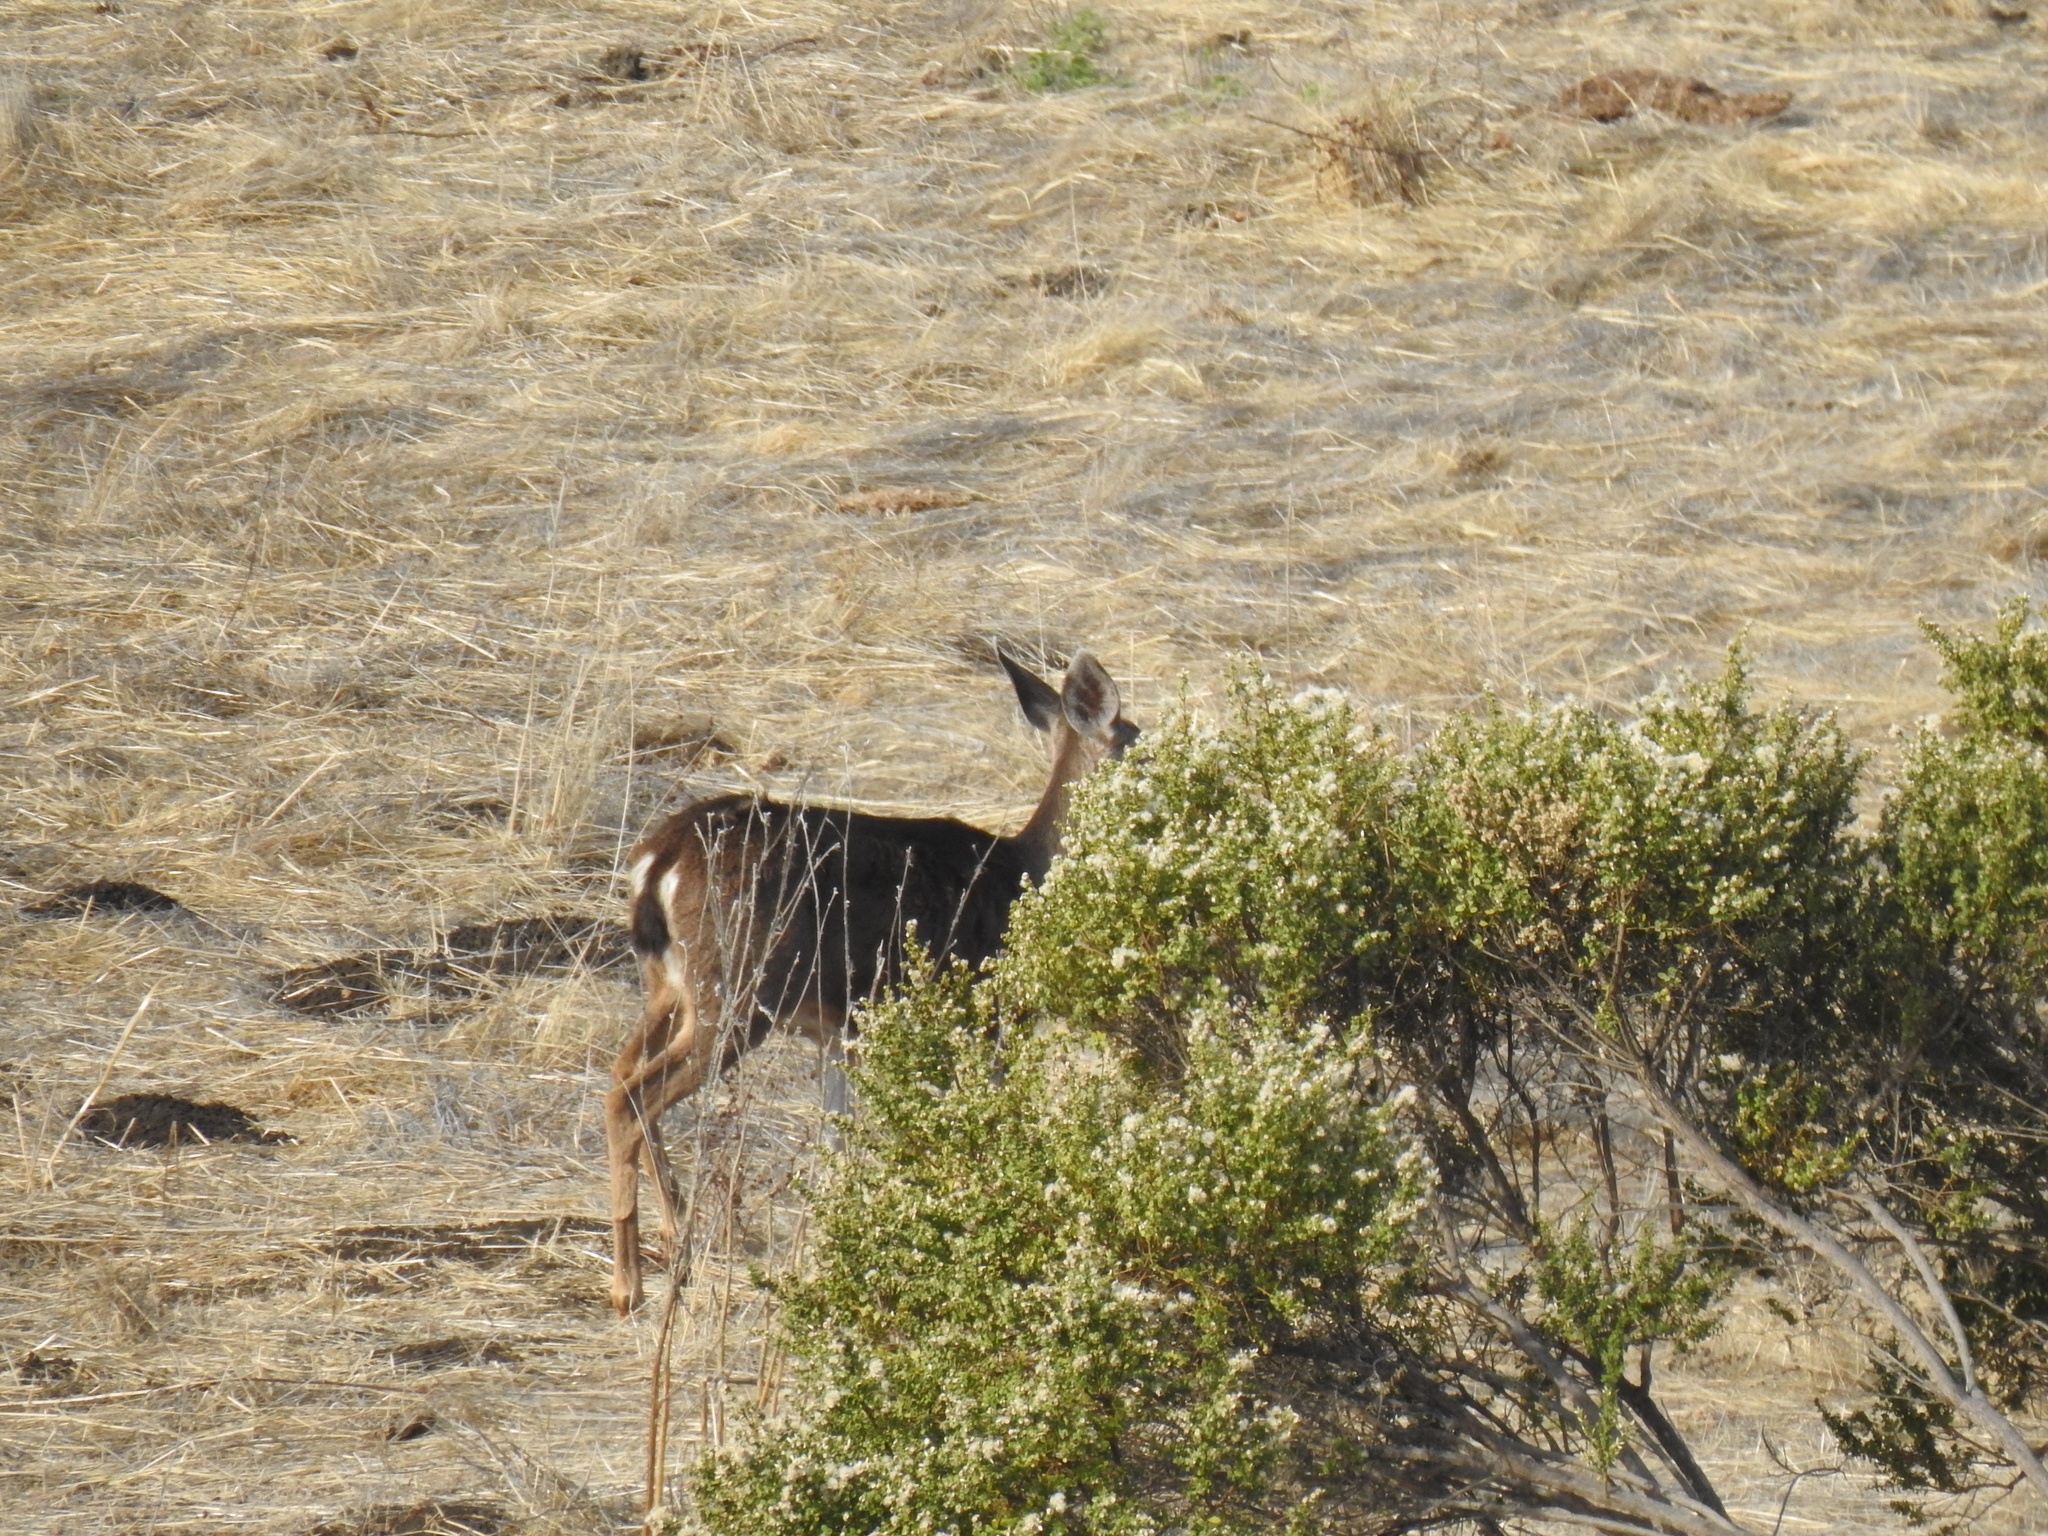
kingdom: Animalia
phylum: Chordata
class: Mammalia
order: Artiodactyla
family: Cervidae
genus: Odocoileus
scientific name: Odocoileus hemionus
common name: Mule deer
